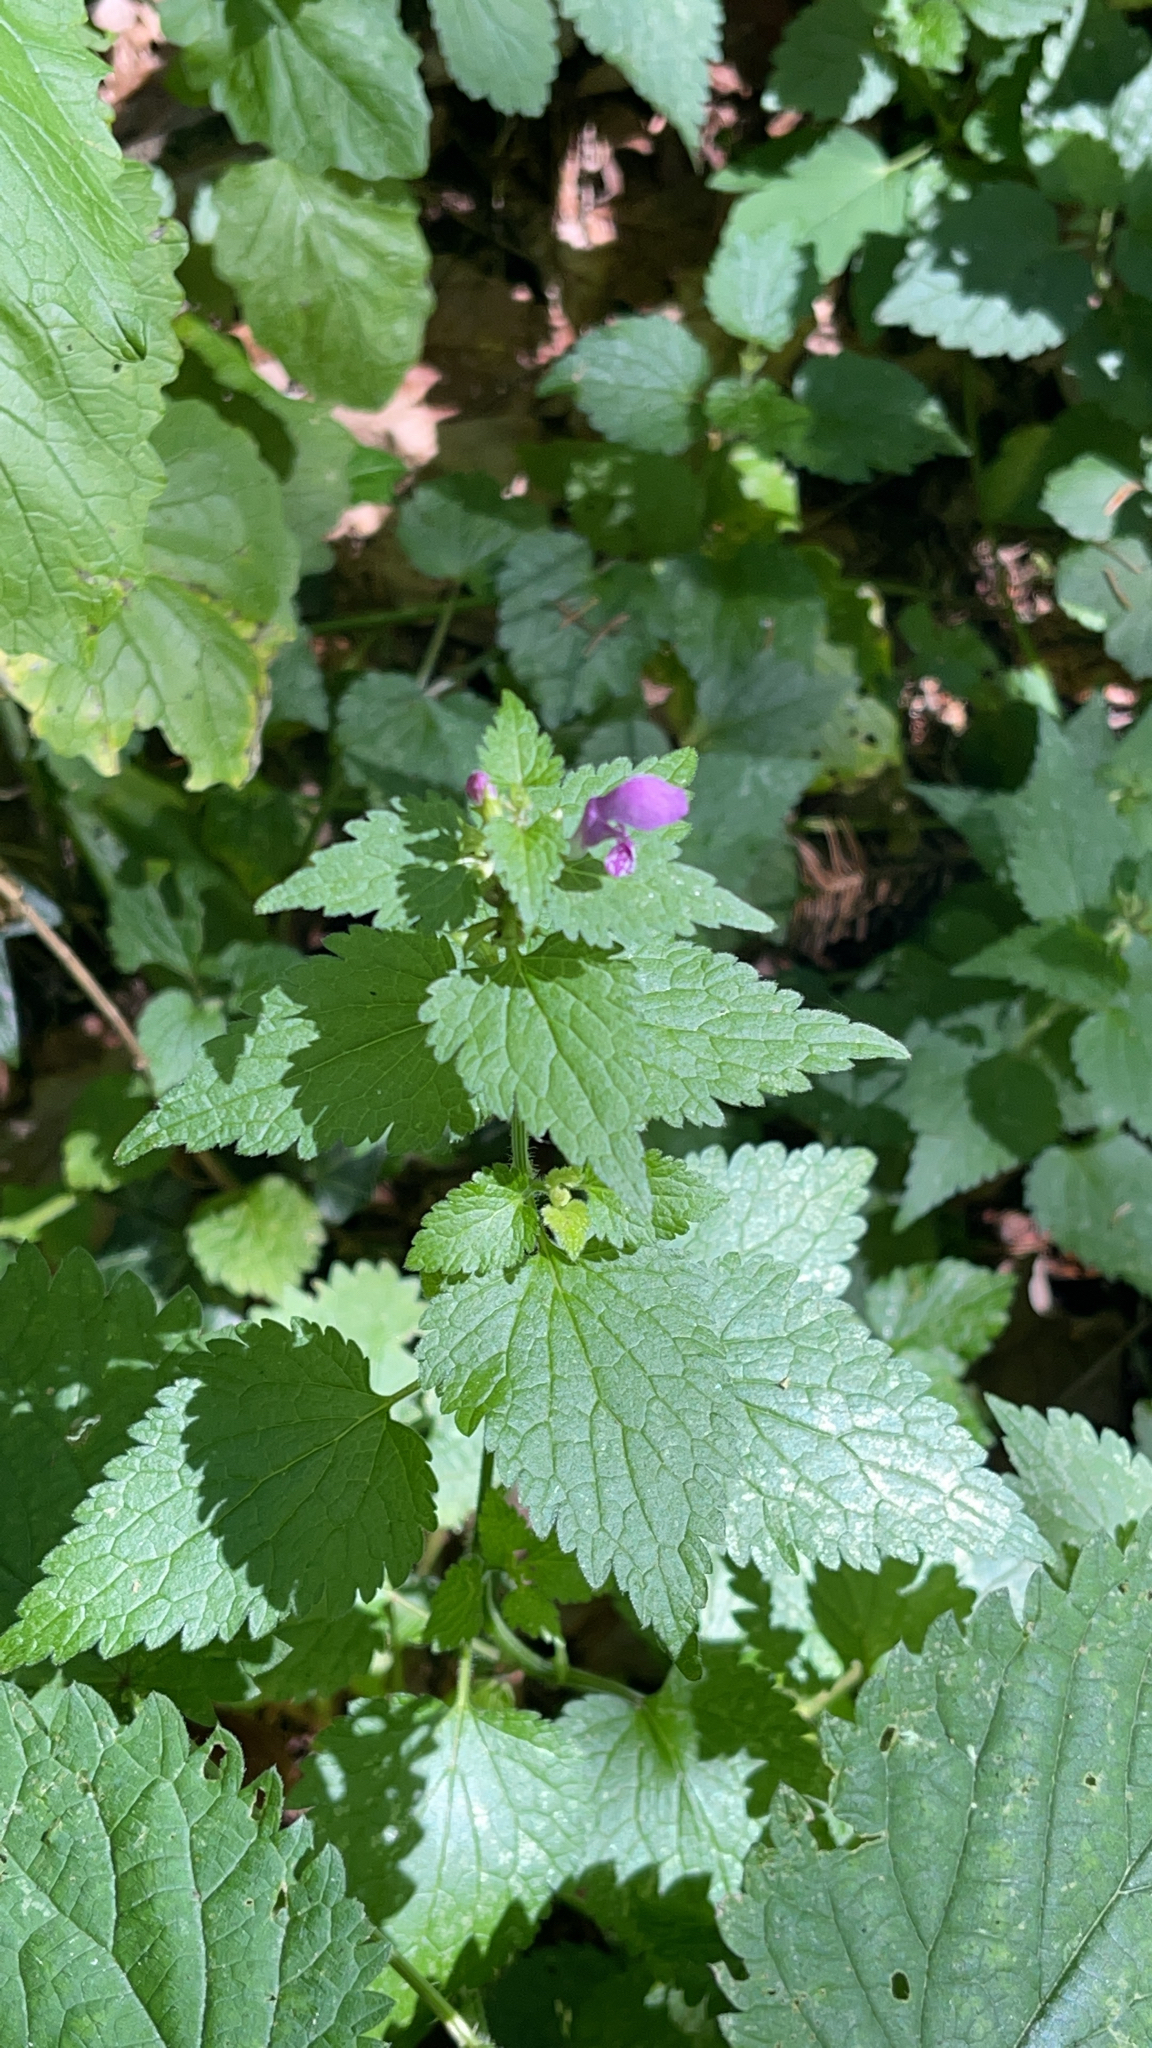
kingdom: Plantae
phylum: Tracheophyta
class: Magnoliopsida
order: Lamiales
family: Lamiaceae
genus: Lamium
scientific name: Lamium maculatum
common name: Spotted dead-nettle
